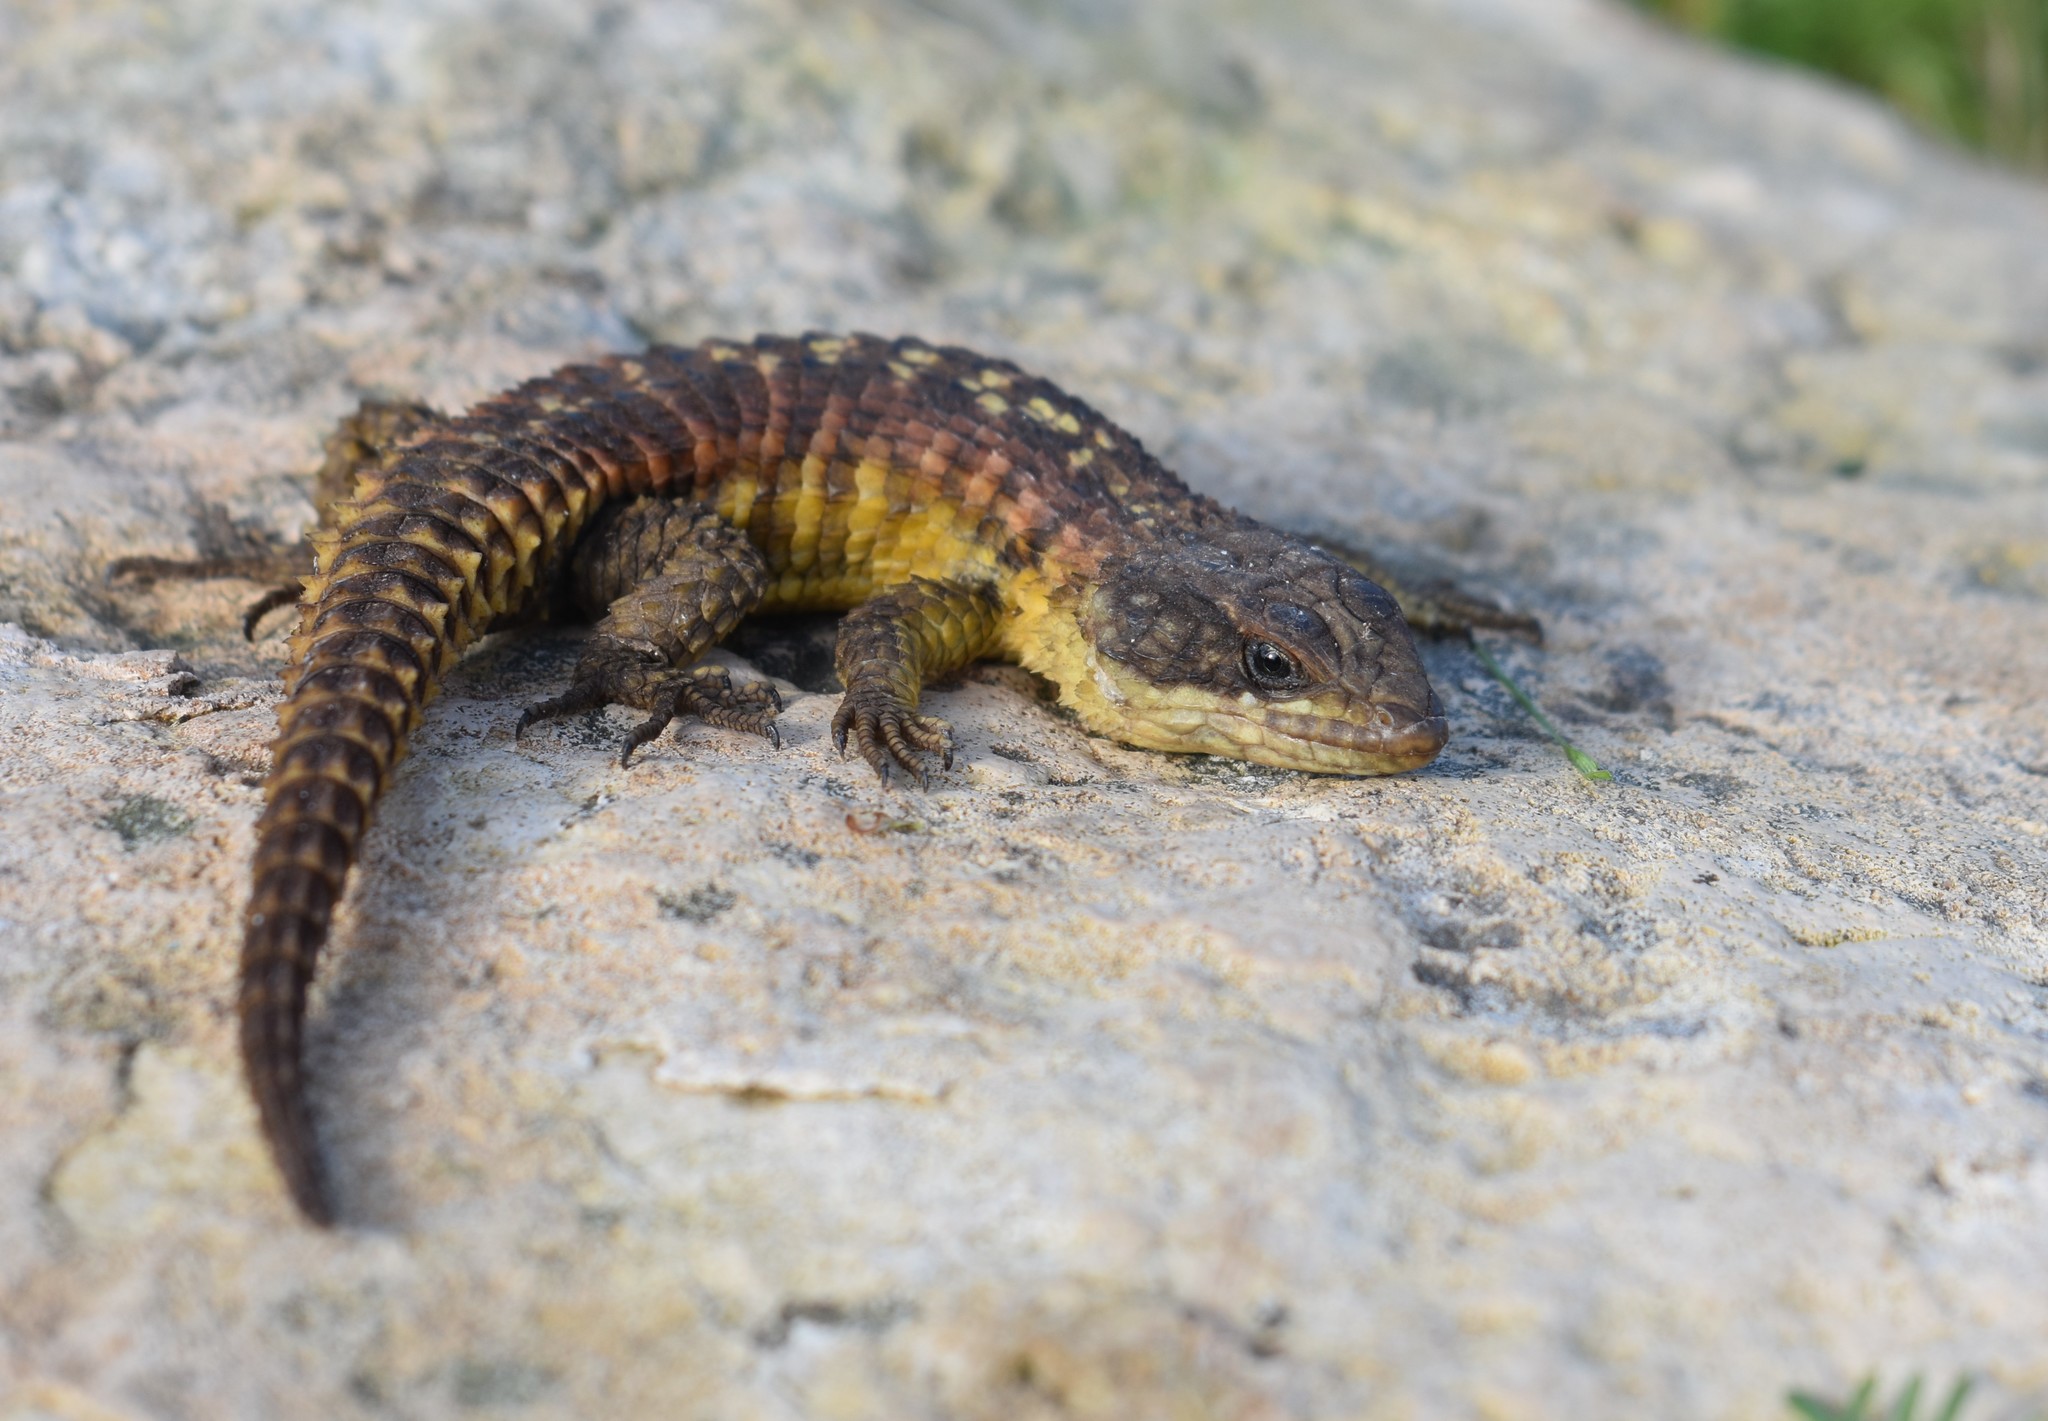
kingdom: Animalia
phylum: Chordata
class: Squamata
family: Cordylidae
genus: Cordylus
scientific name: Cordylus cordylus
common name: Cape girdled lizard
